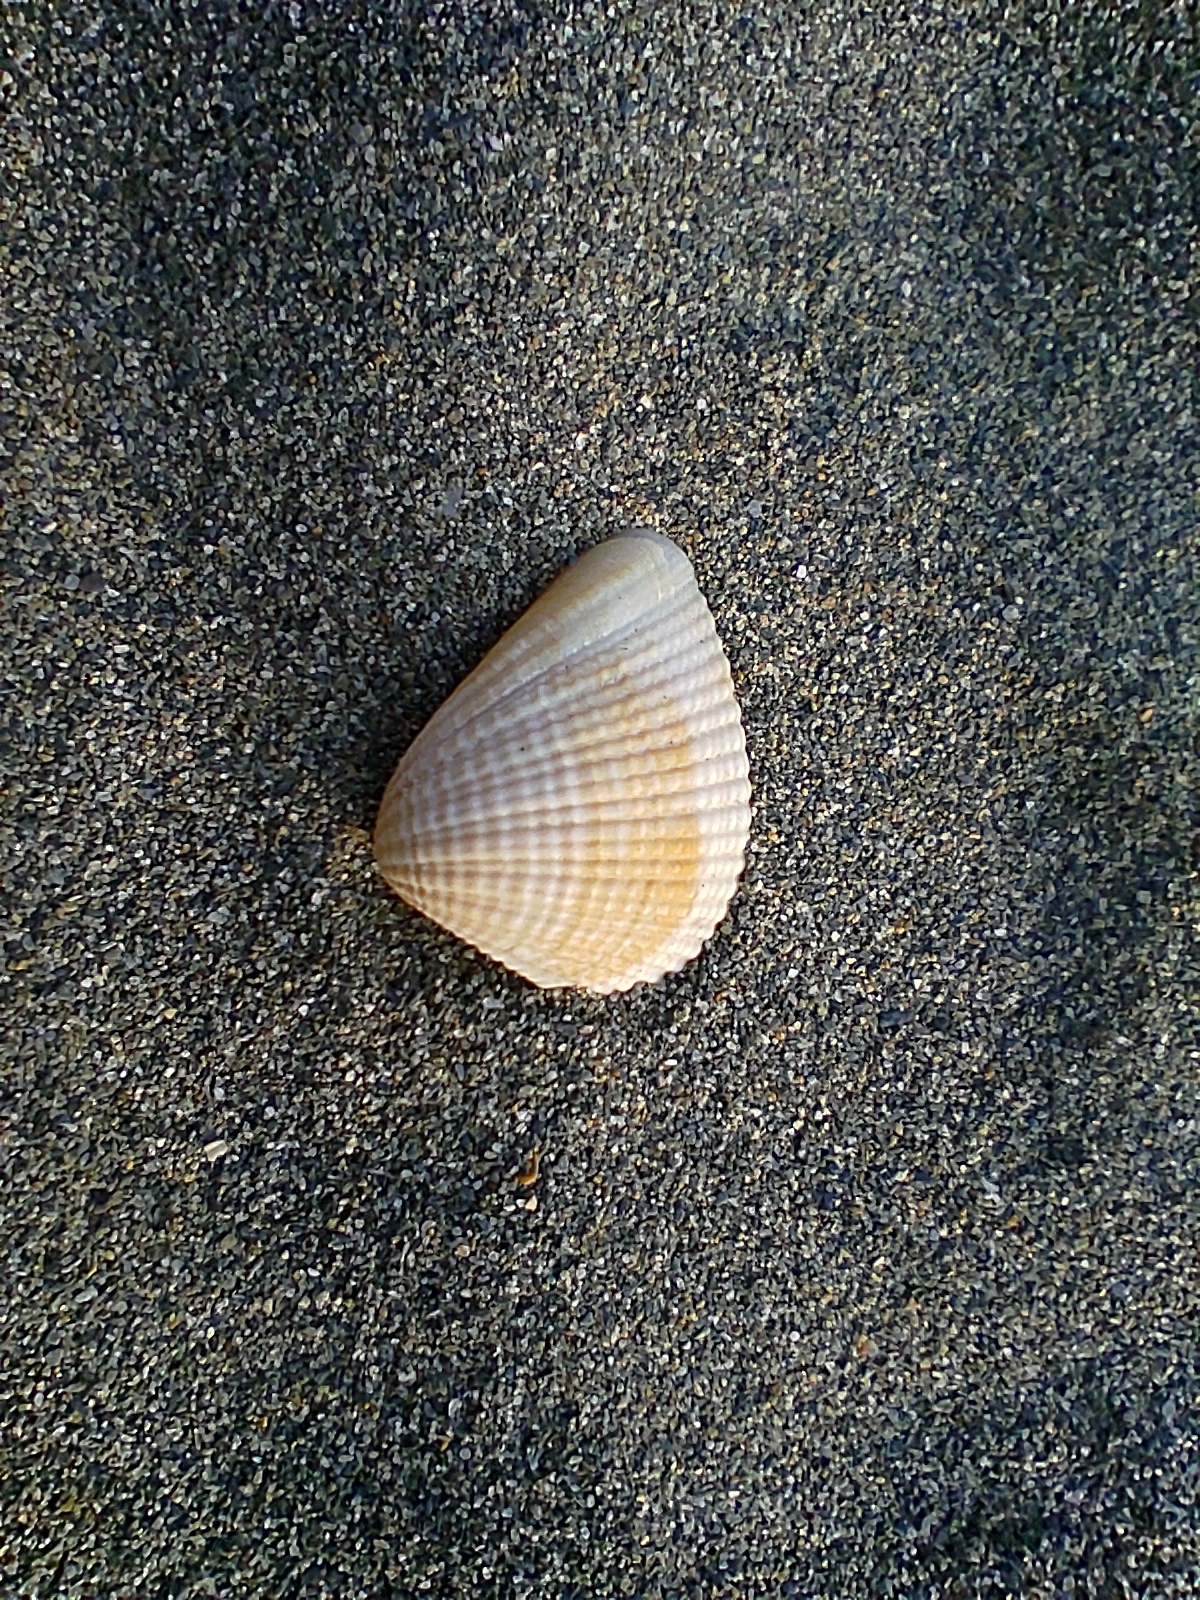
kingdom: Animalia
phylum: Mollusca
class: Bivalvia
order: Venerida
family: Veneridae
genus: Anomalodiscus
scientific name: Anomalodiscus squamosus
